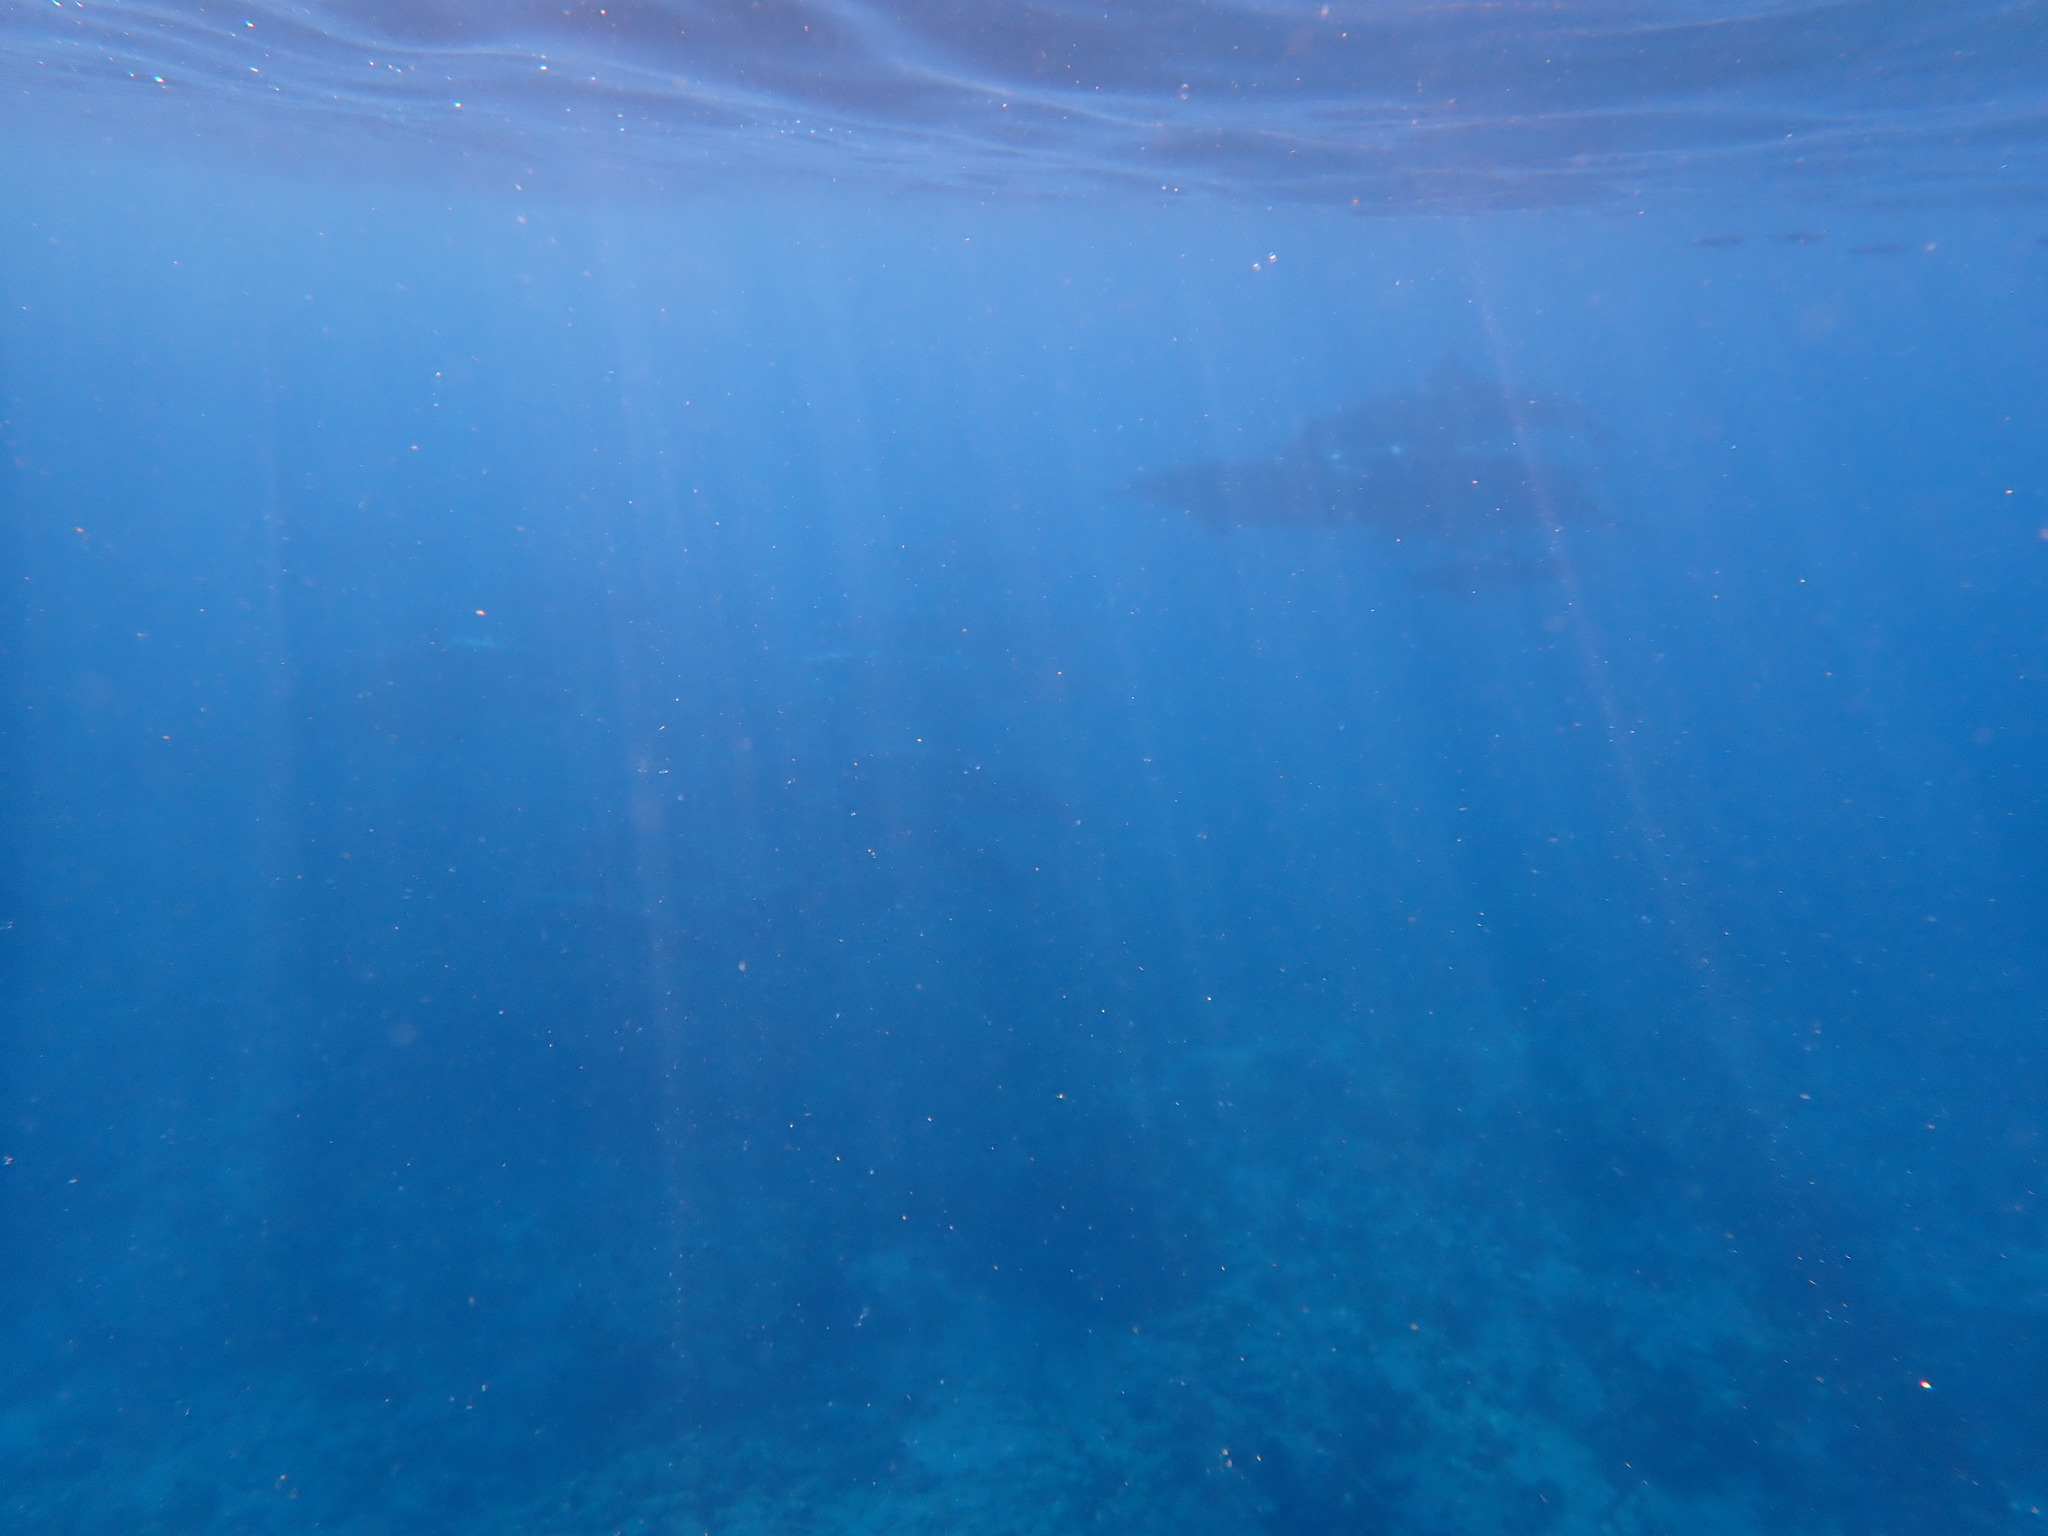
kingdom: Animalia
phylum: Chordata
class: Mammalia
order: Cetacea
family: Delphinidae
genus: Stenella
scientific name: Stenella longirostris
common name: Spinner dolphin
